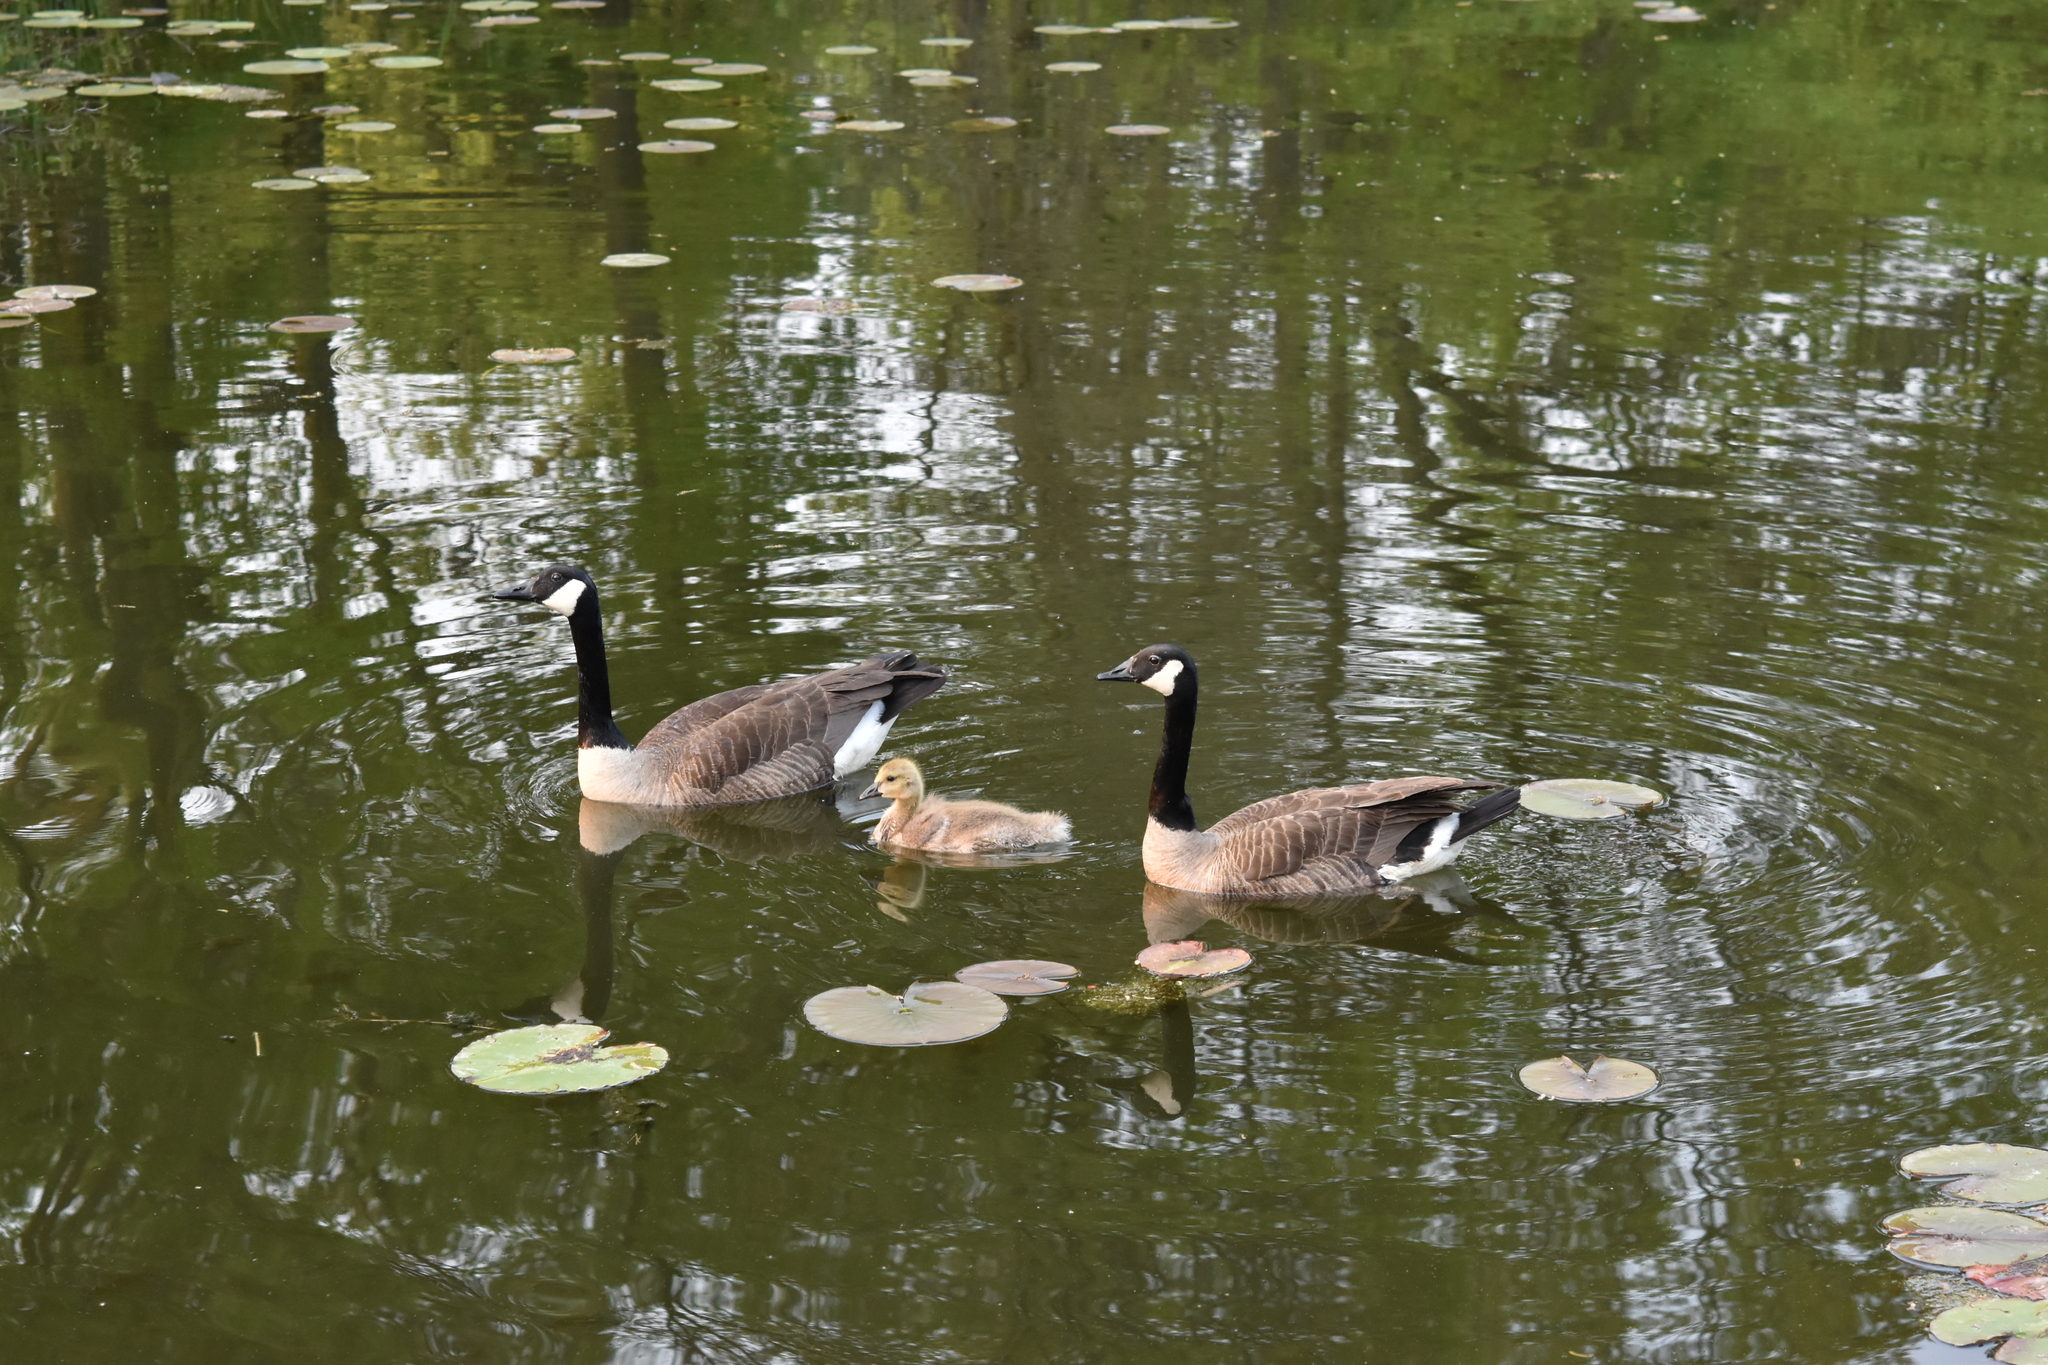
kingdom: Animalia
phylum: Chordata
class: Aves
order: Anseriformes
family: Anatidae
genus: Branta
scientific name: Branta canadensis
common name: Canada goose
